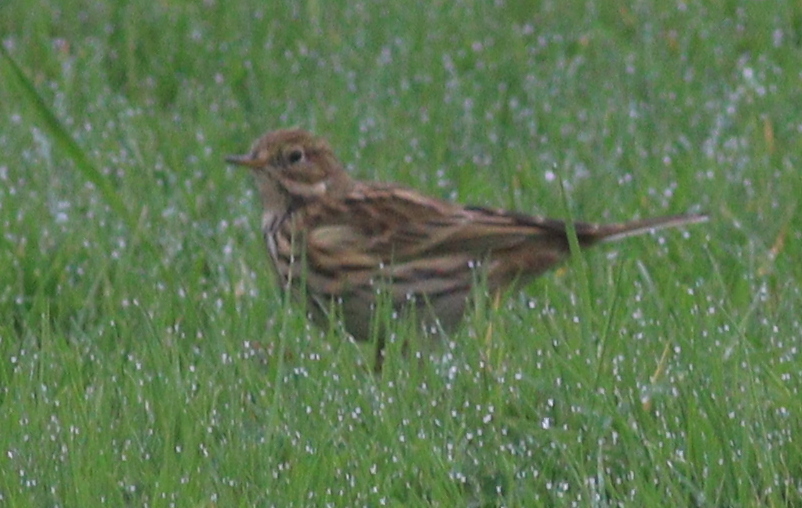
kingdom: Animalia
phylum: Chordata
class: Aves
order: Passeriformes
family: Motacillidae
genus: Anthus
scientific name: Anthus pratensis
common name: Meadow pipit
